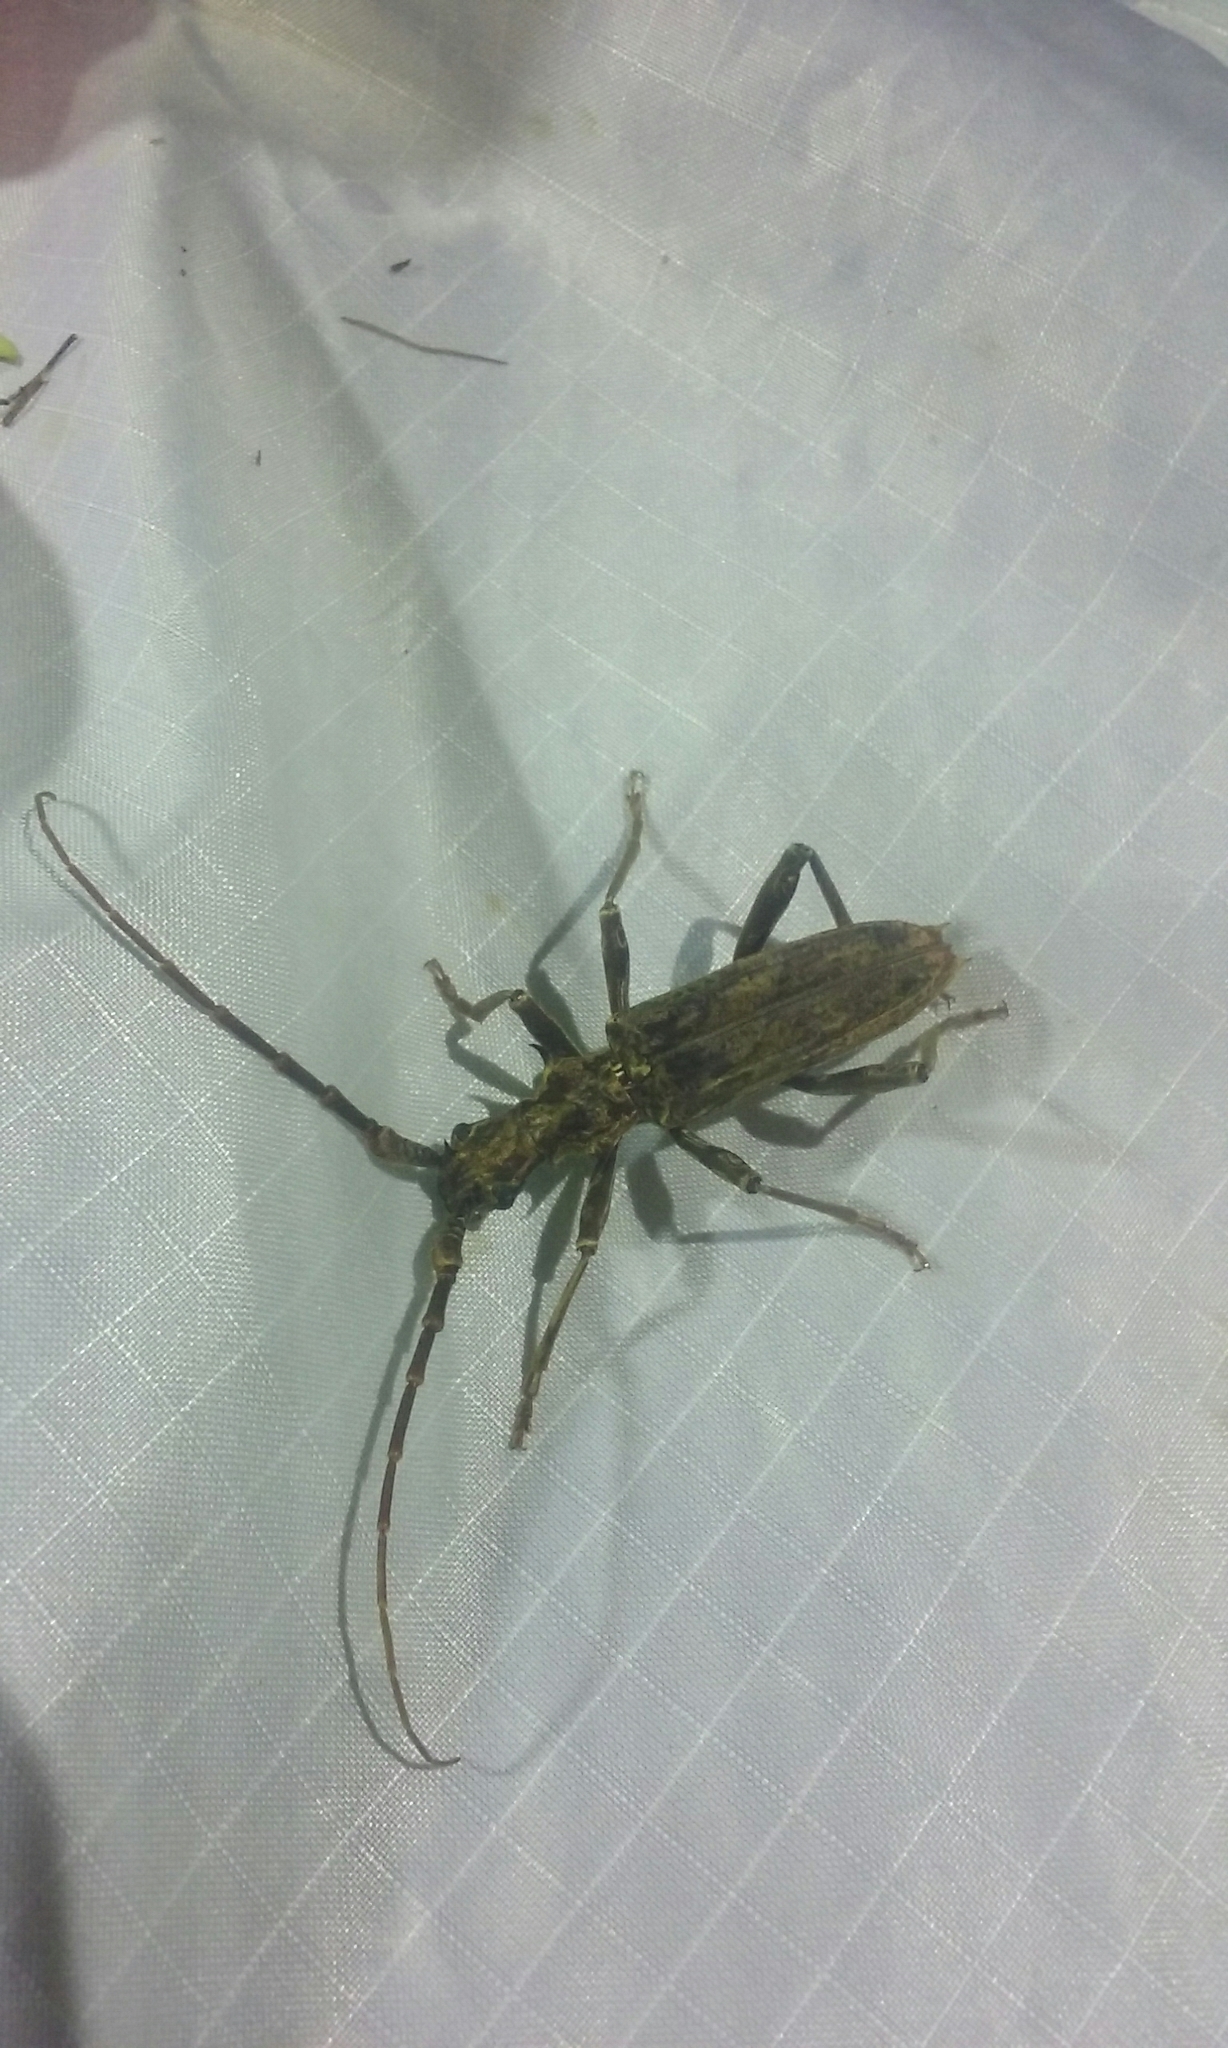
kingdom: Animalia
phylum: Arthropoda
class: Insecta
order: Coleoptera
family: Cerambycidae
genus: Blosyropus
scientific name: Blosyropus spinosus
